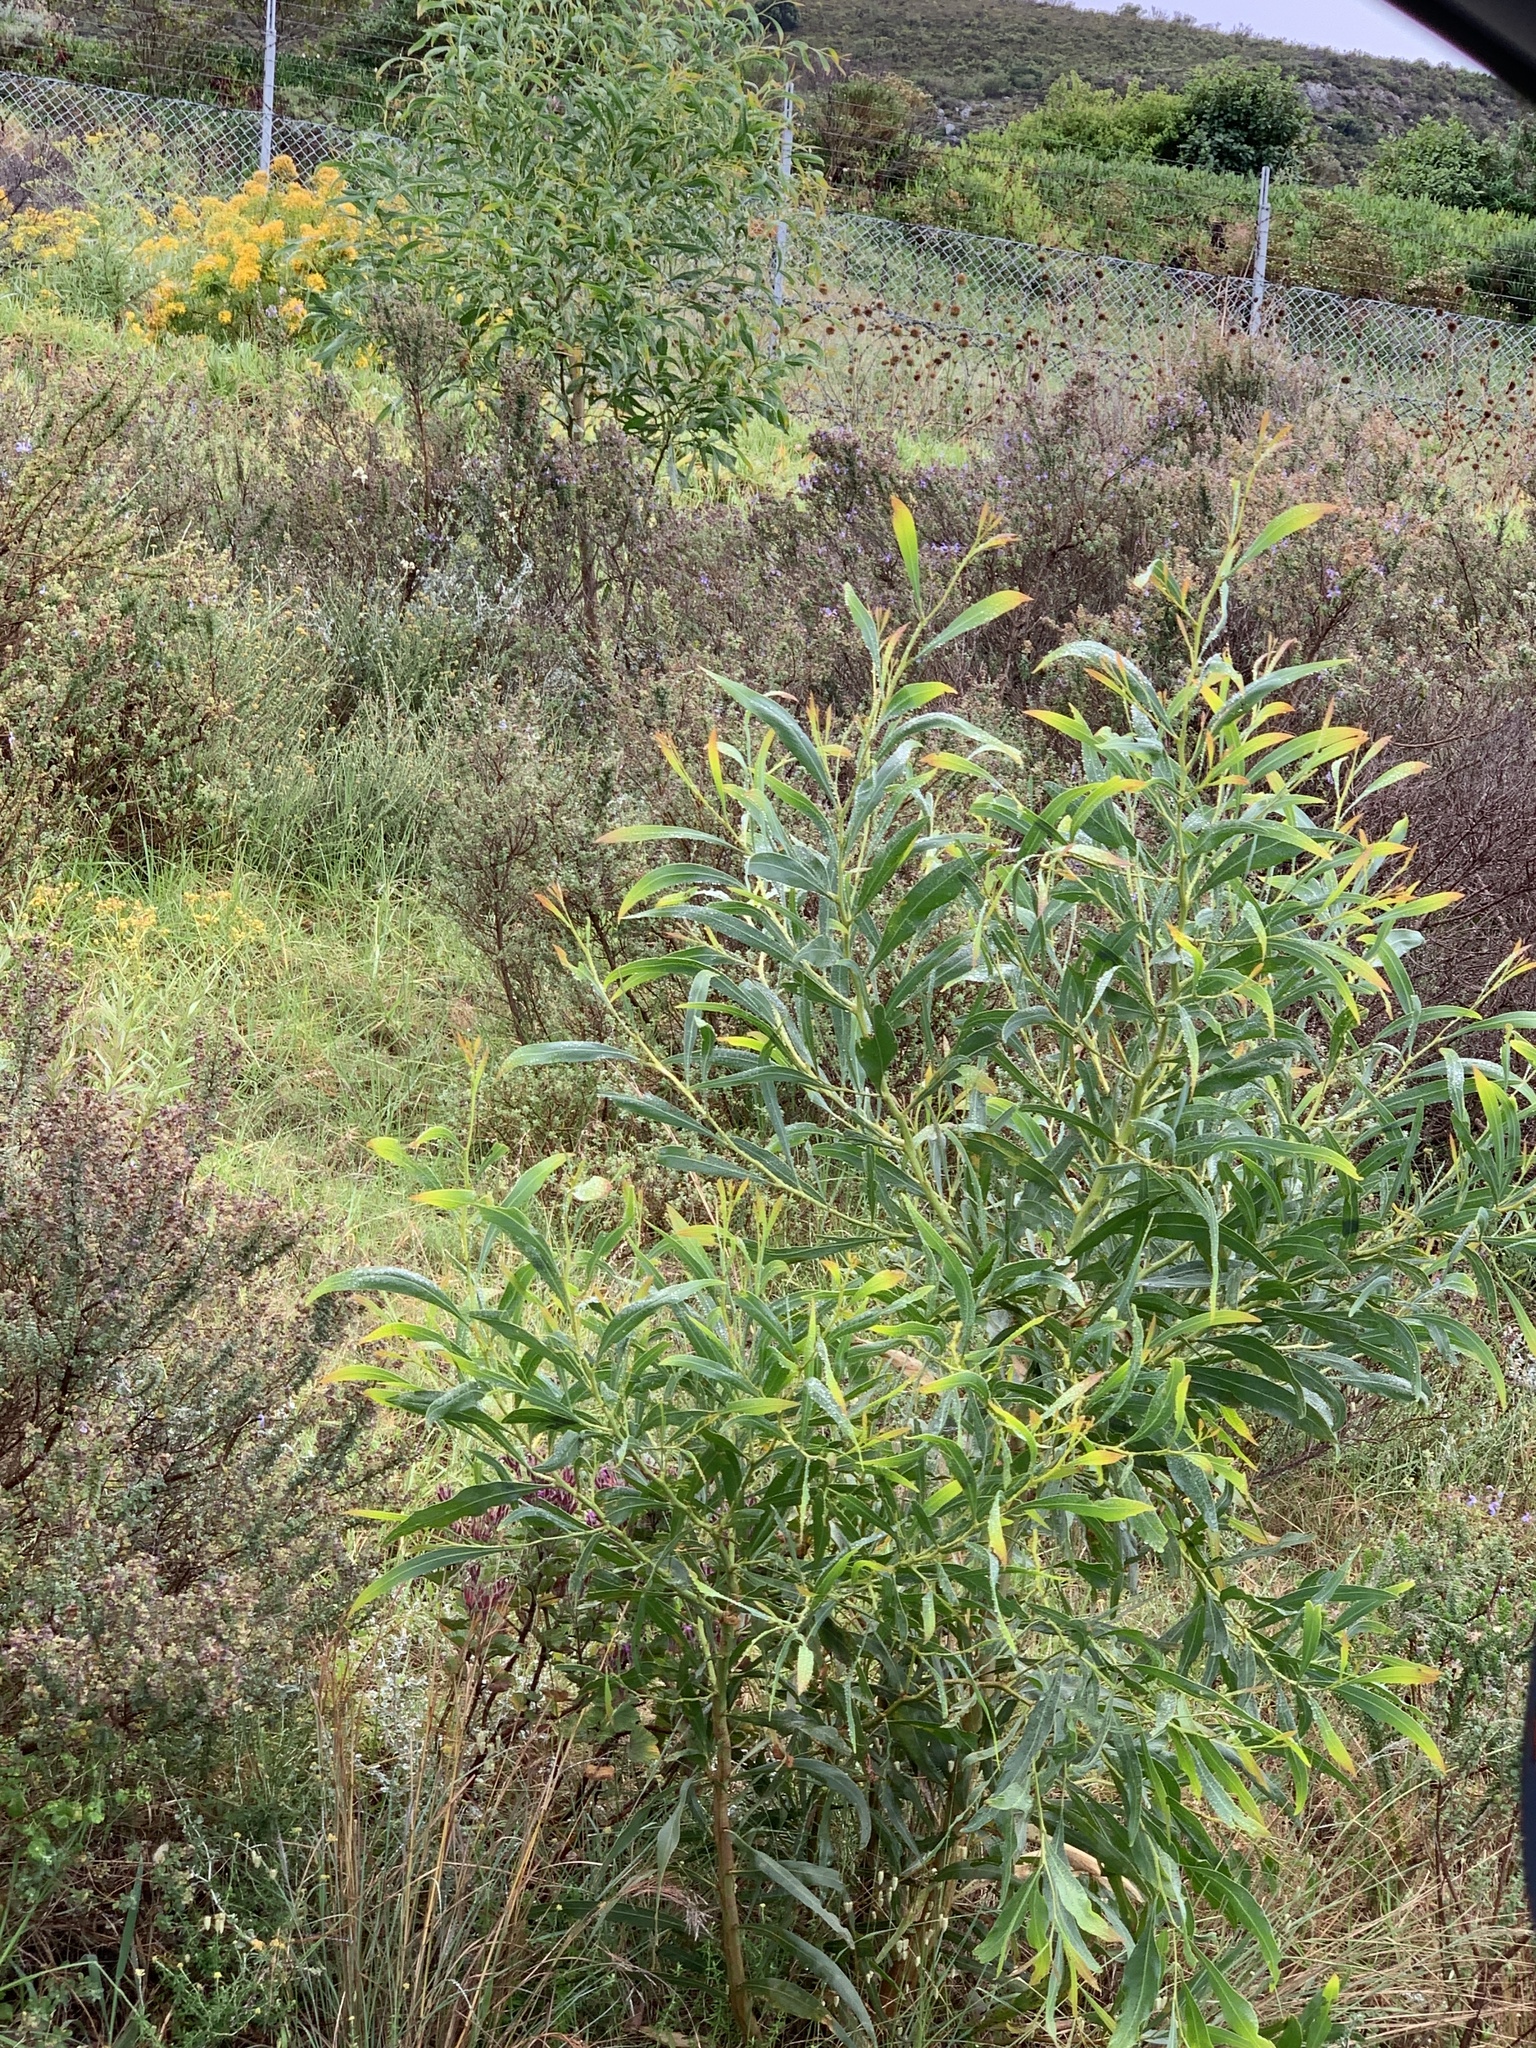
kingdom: Plantae
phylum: Tracheophyta
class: Magnoliopsida
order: Fabales
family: Fabaceae
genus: Acacia
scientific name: Acacia saligna
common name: Orange wattle
